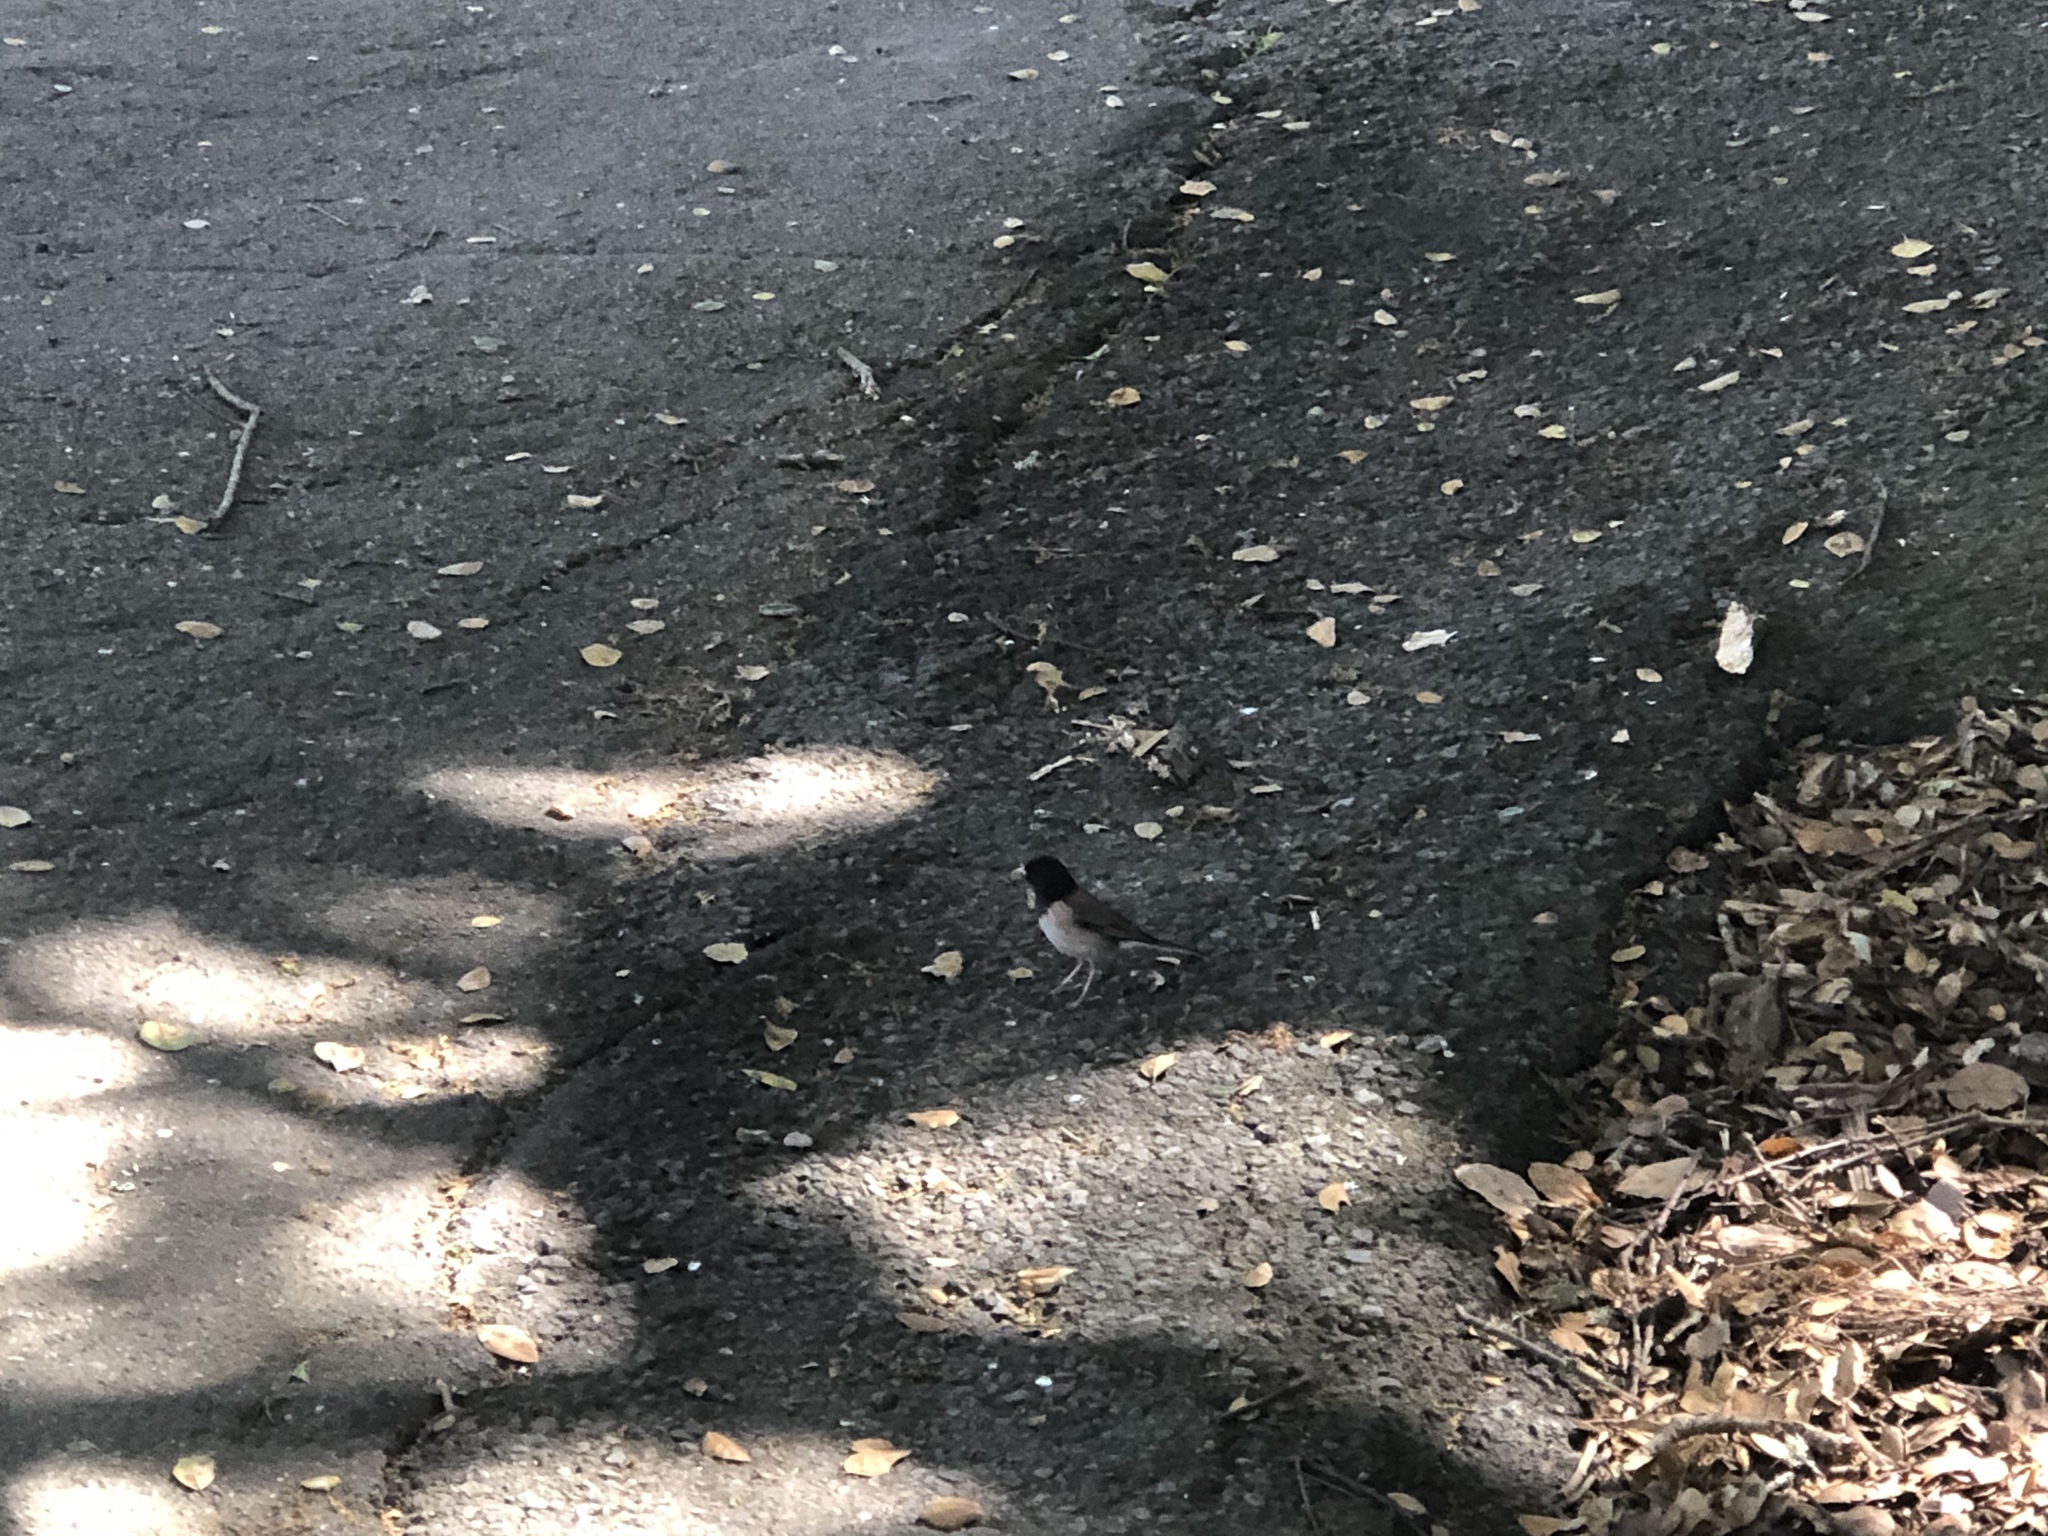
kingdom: Animalia
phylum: Chordata
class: Aves
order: Passeriformes
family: Passerellidae
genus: Junco
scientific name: Junco hyemalis
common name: Dark-eyed junco
